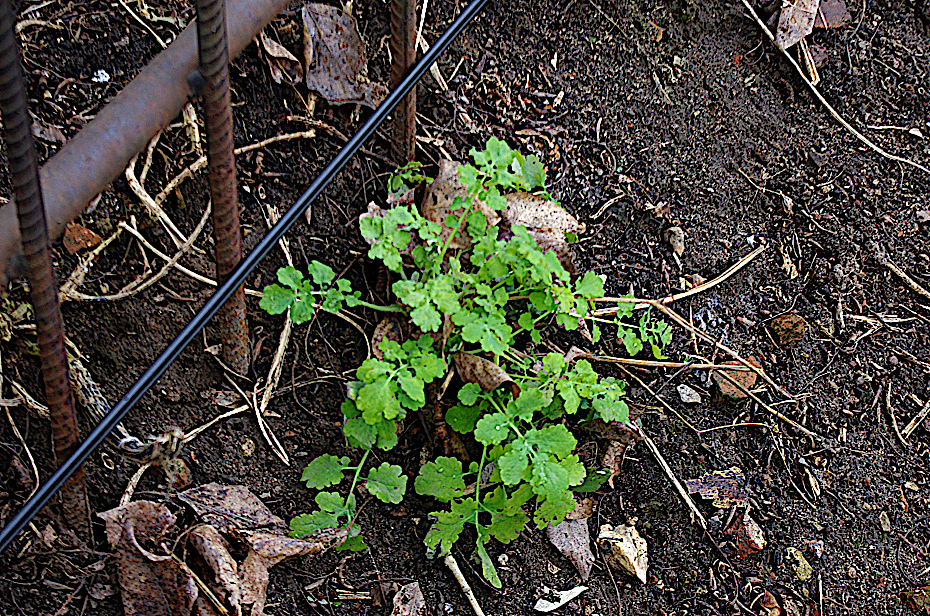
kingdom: Plantae
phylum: Tracheophyta
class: Magnoliopsida
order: Ranunculales
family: Papaveraceae
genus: Chelidonium
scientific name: Chelidonium majus
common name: Greater celandine
